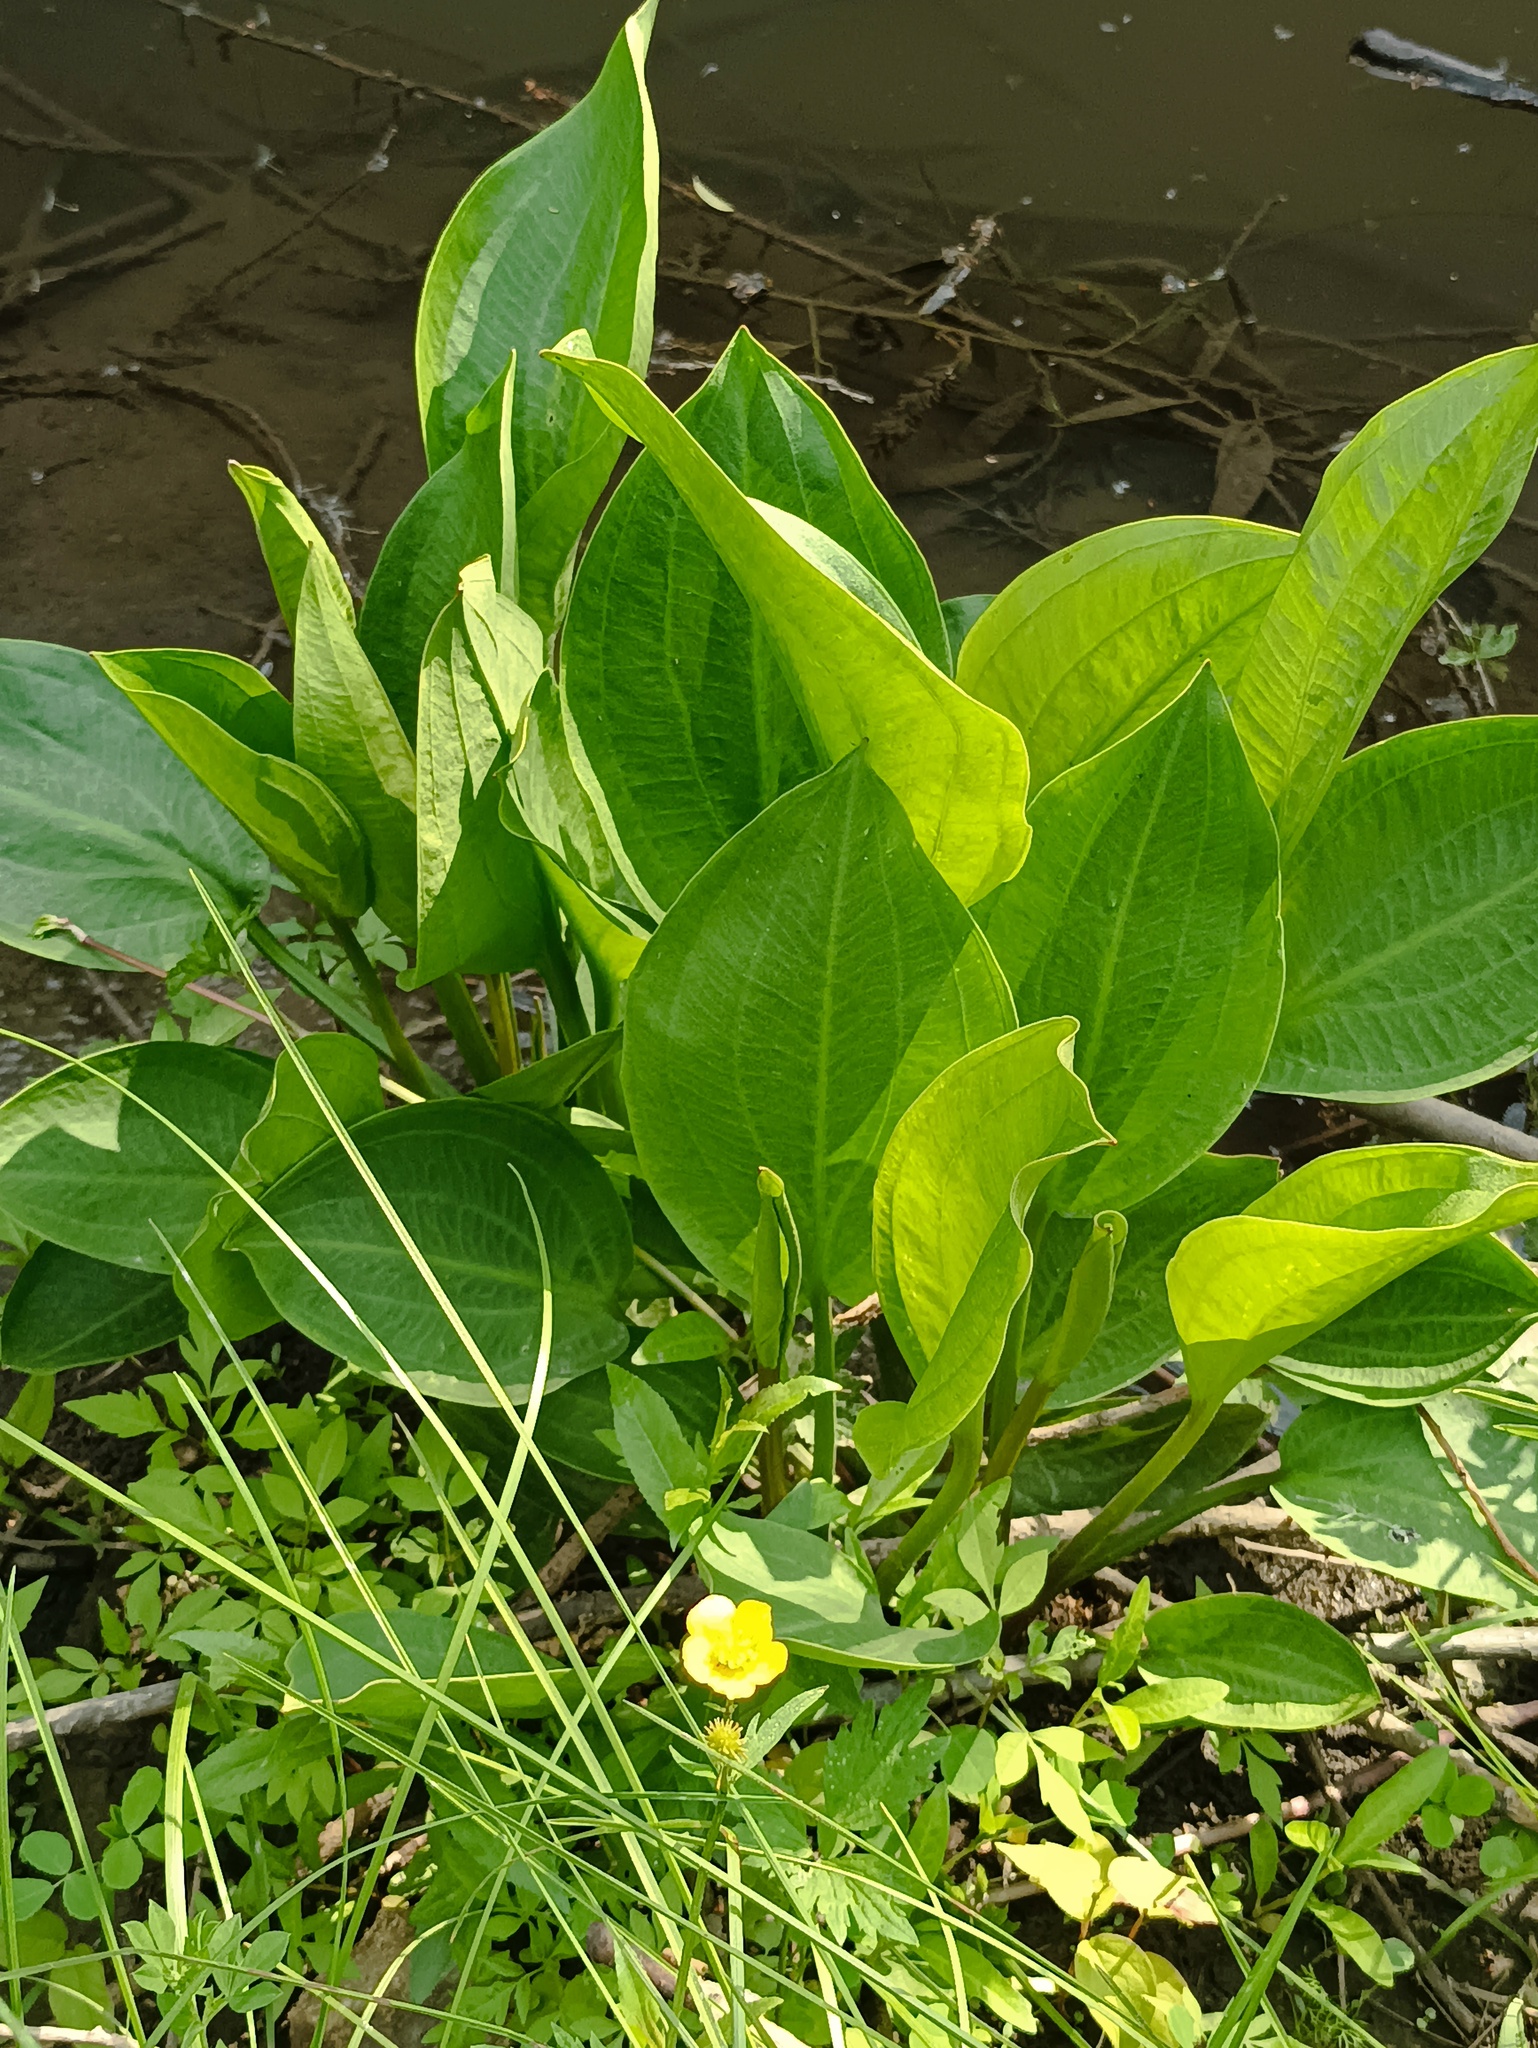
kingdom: Plantae
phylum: Tracheophyta
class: Liliopsida
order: Alismatales
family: Alismataceae
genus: Alisma
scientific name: Alisma plantago-aquatica
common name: Water-plantain
